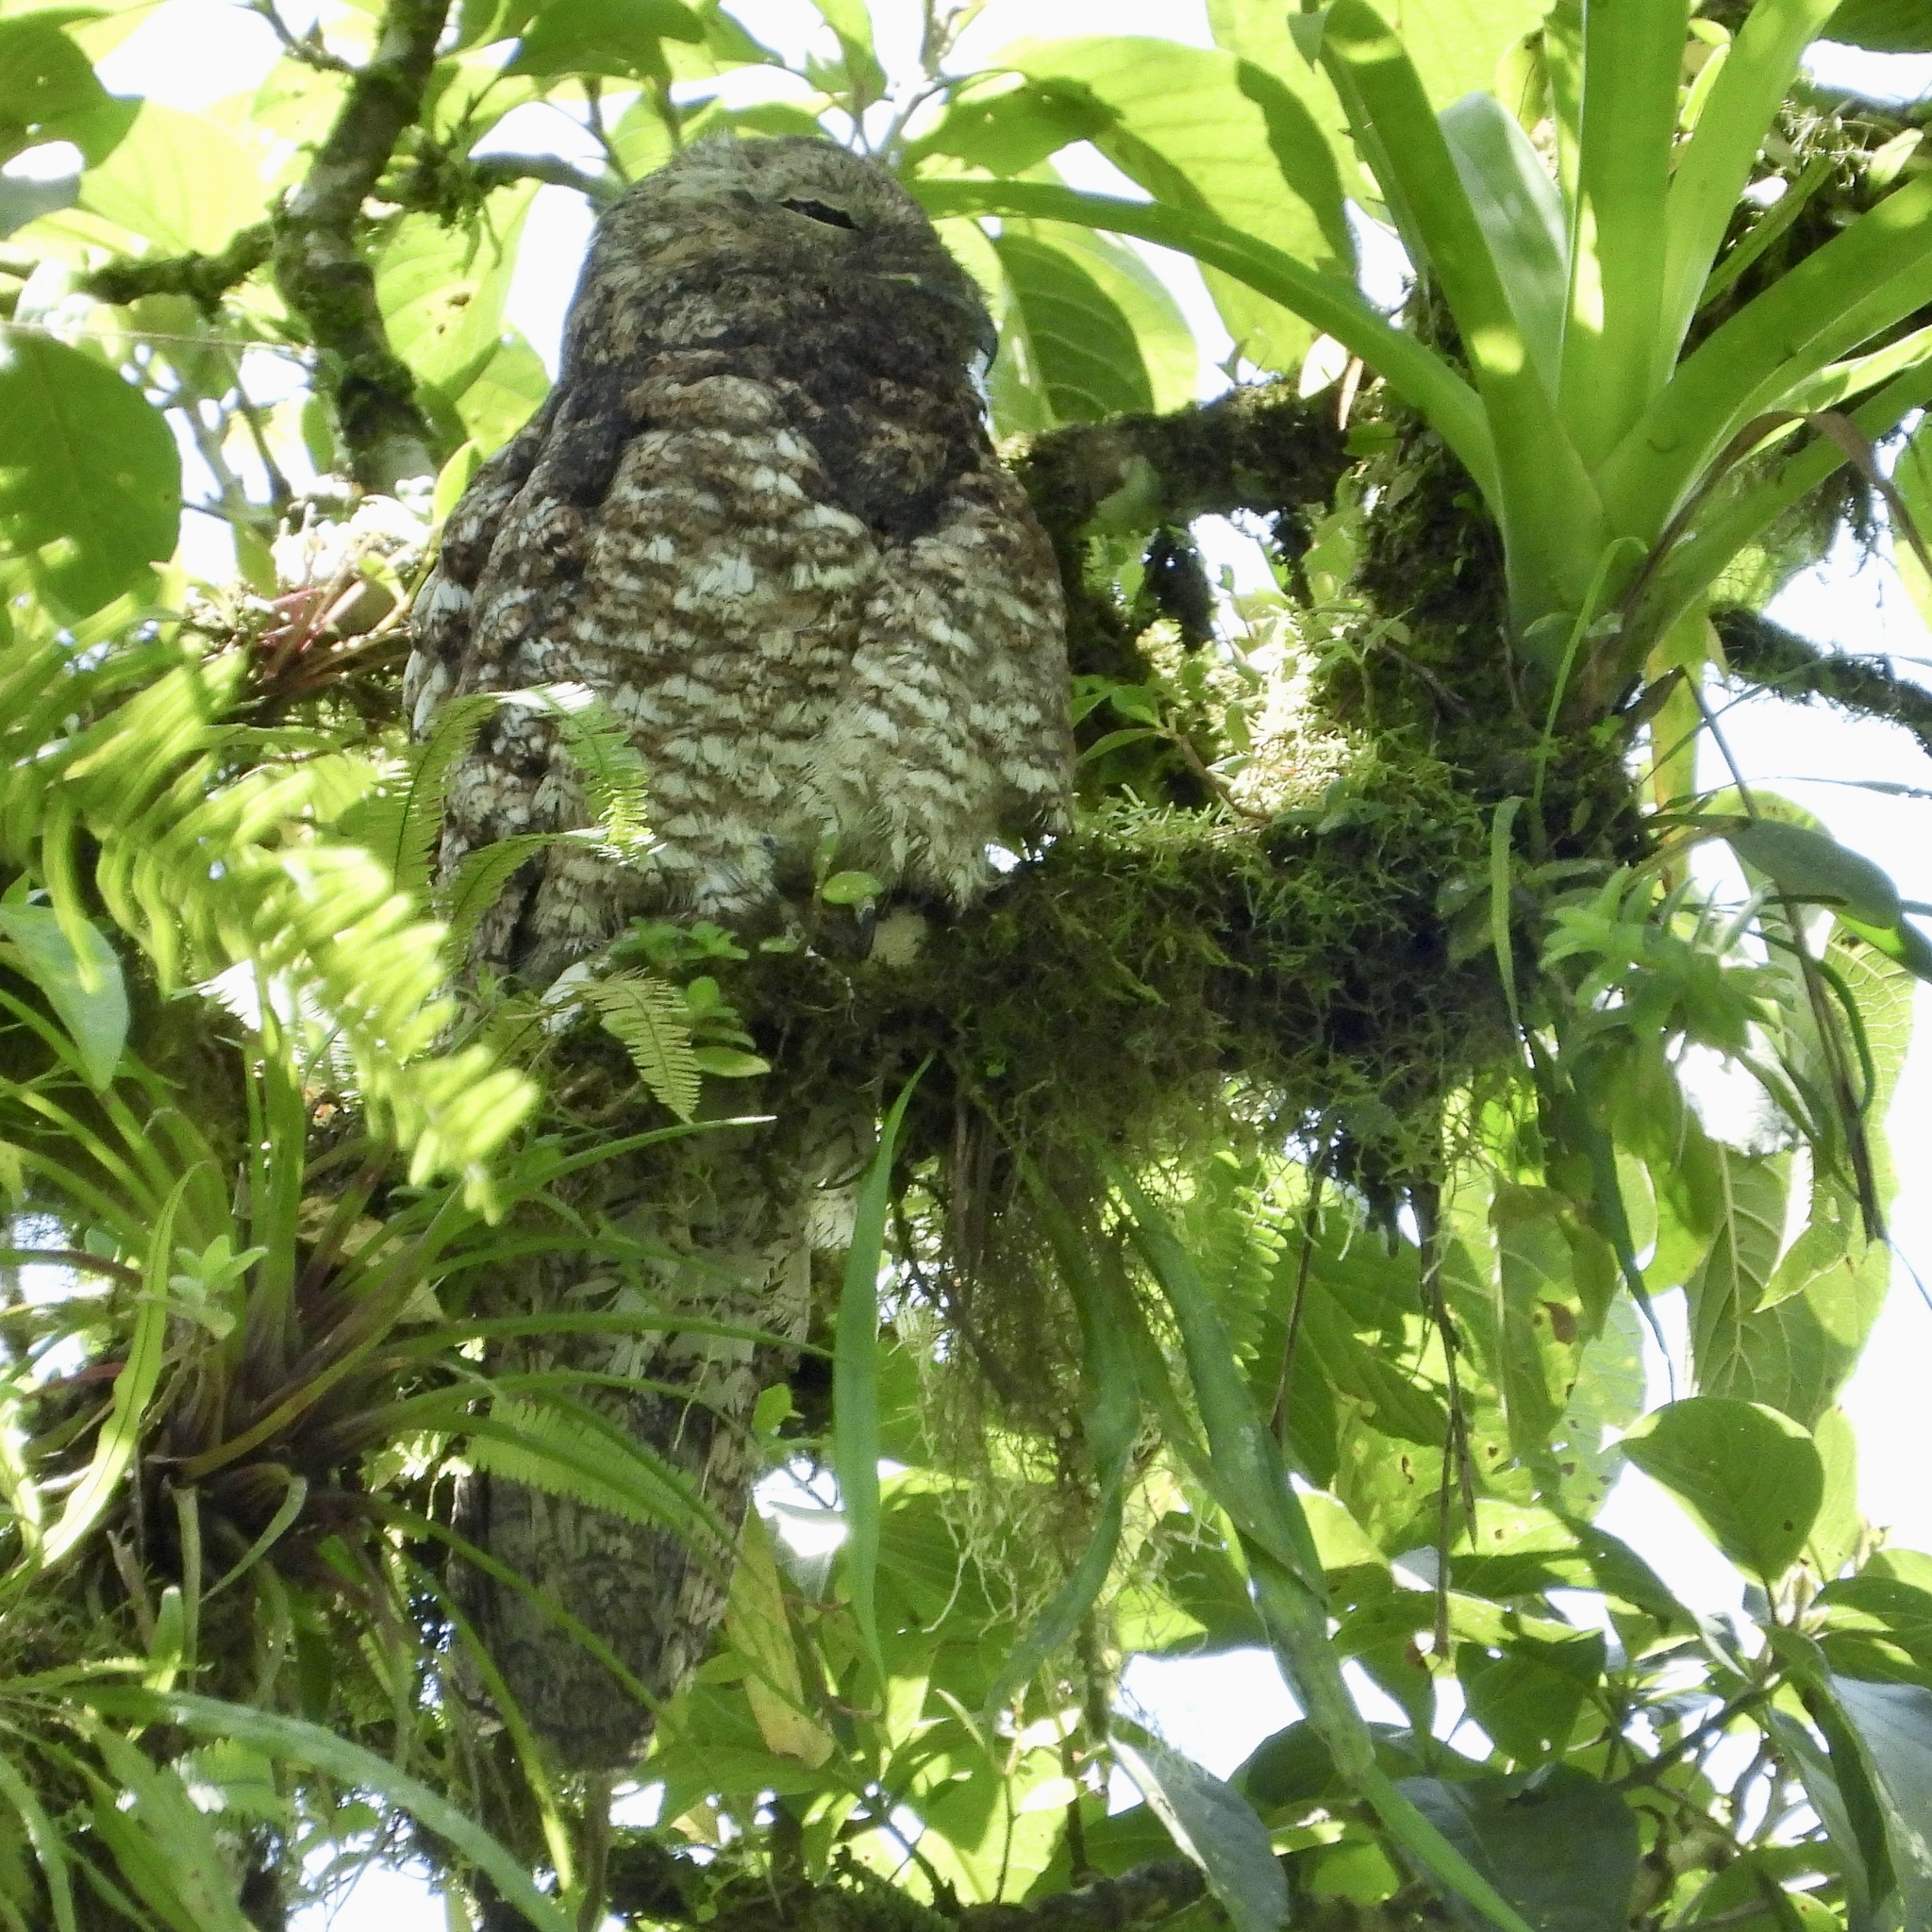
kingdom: Animalia
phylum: Chordata
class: Aves
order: Nyctibiiformes
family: Nyctibiidae
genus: Nyctibius
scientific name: Nyctibius grandis
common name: Great potoo
